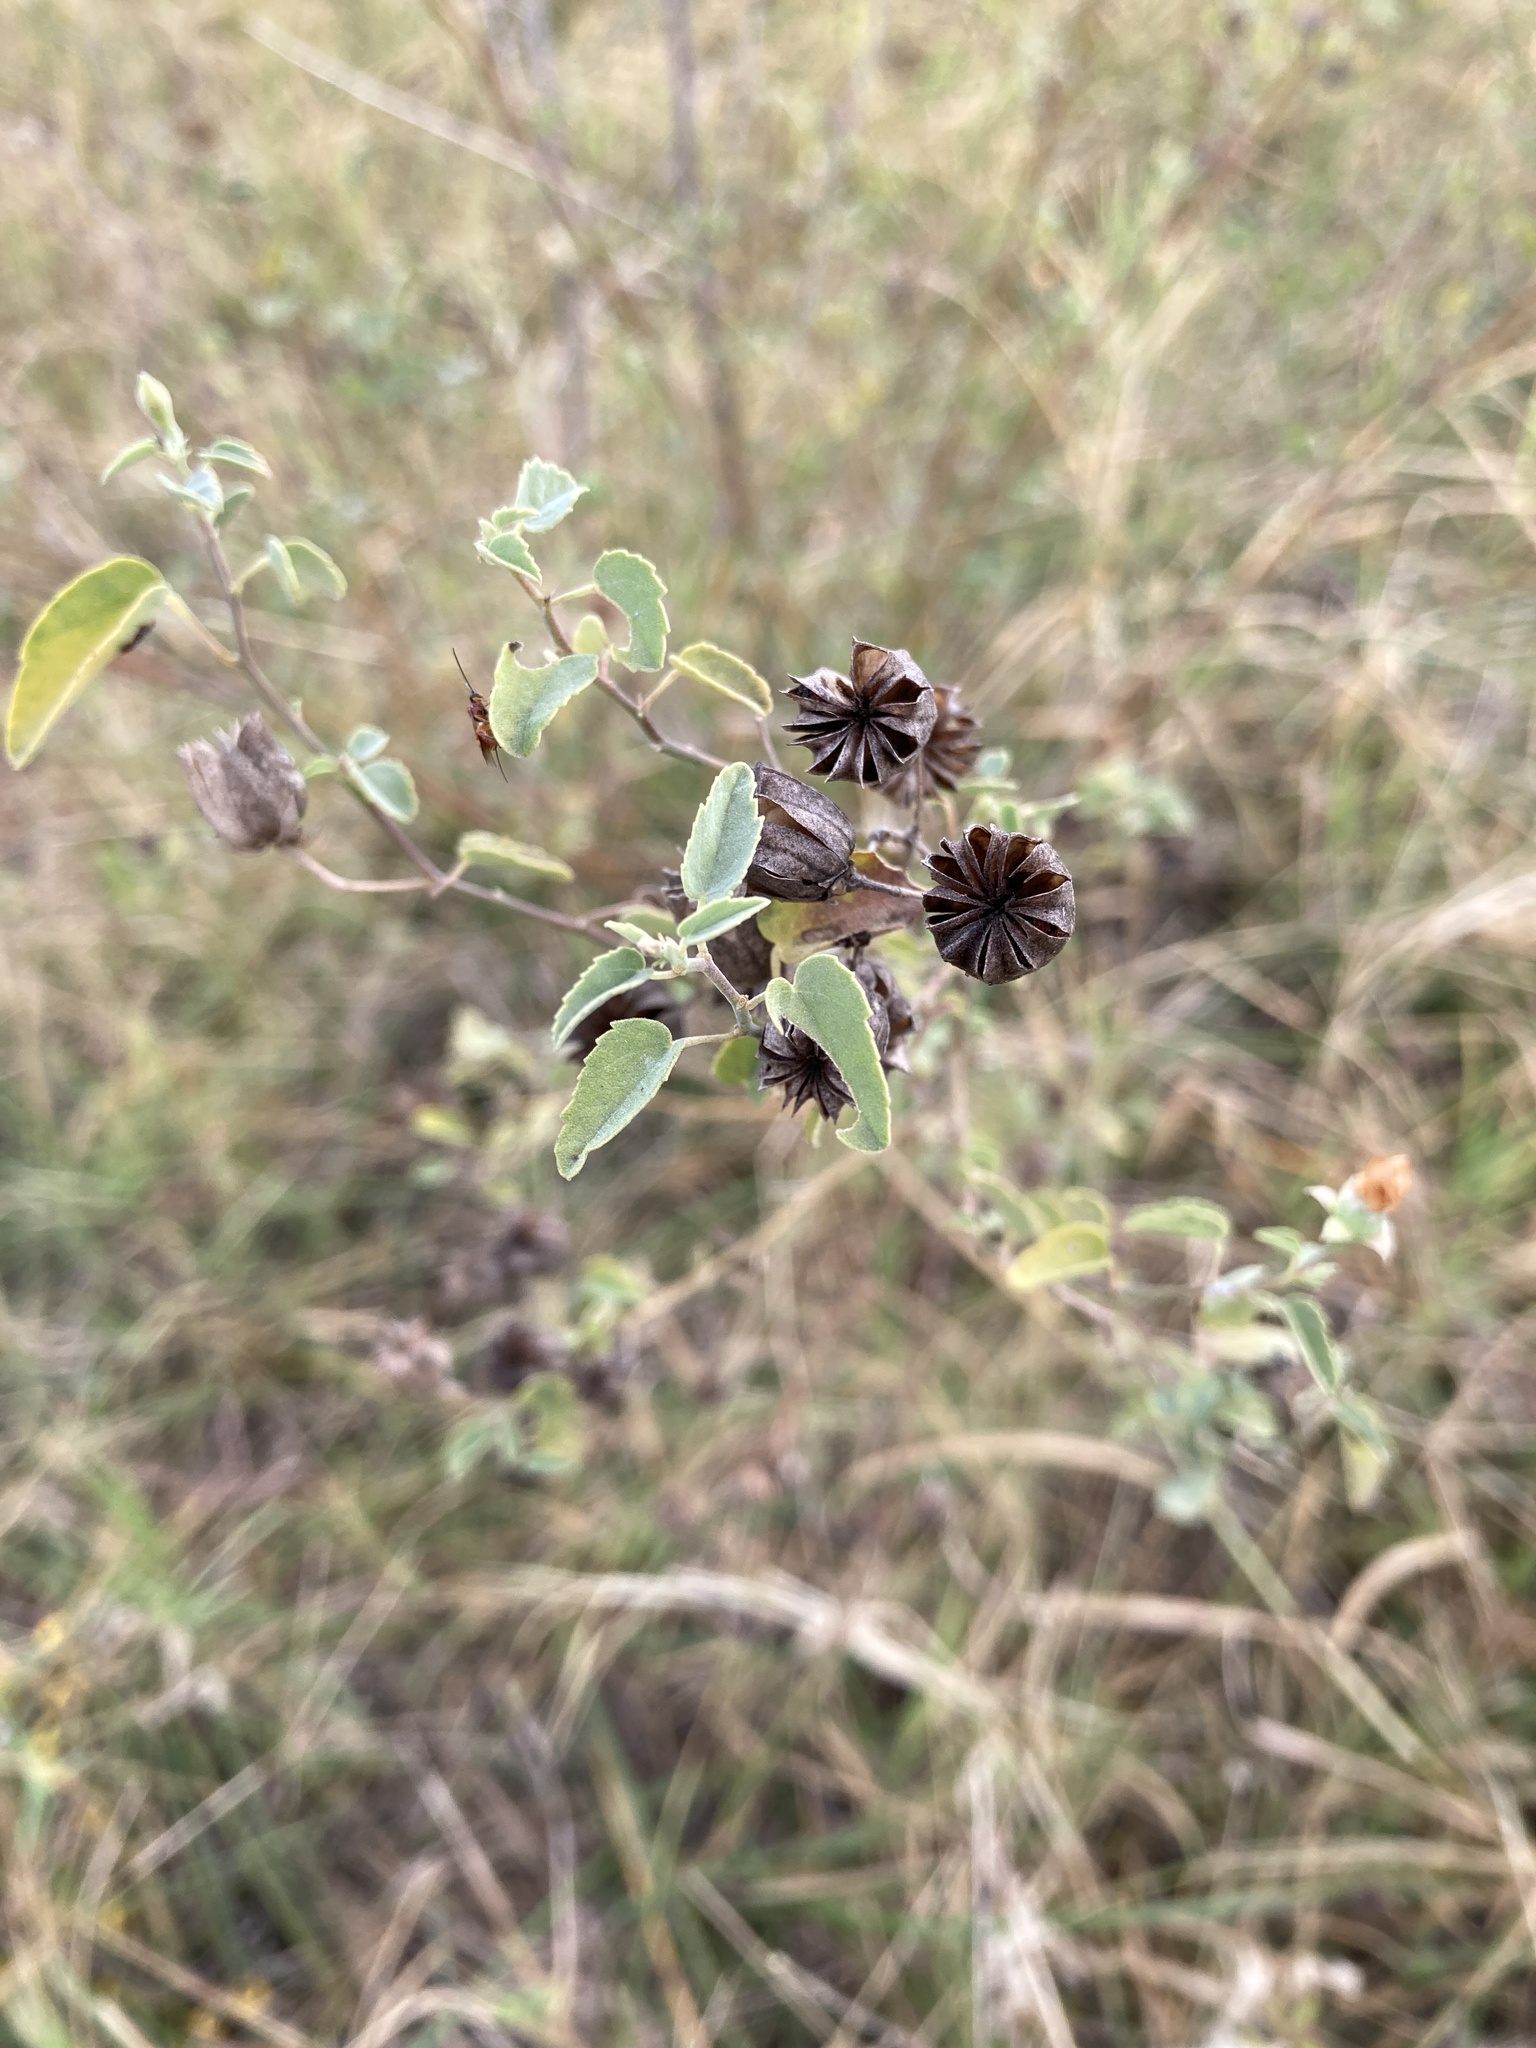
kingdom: Plantae
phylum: Tracheophyta
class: Magnoliopsida
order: Malvales
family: Malvaceae
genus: Abutilon
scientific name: Abutilon fruticosum
